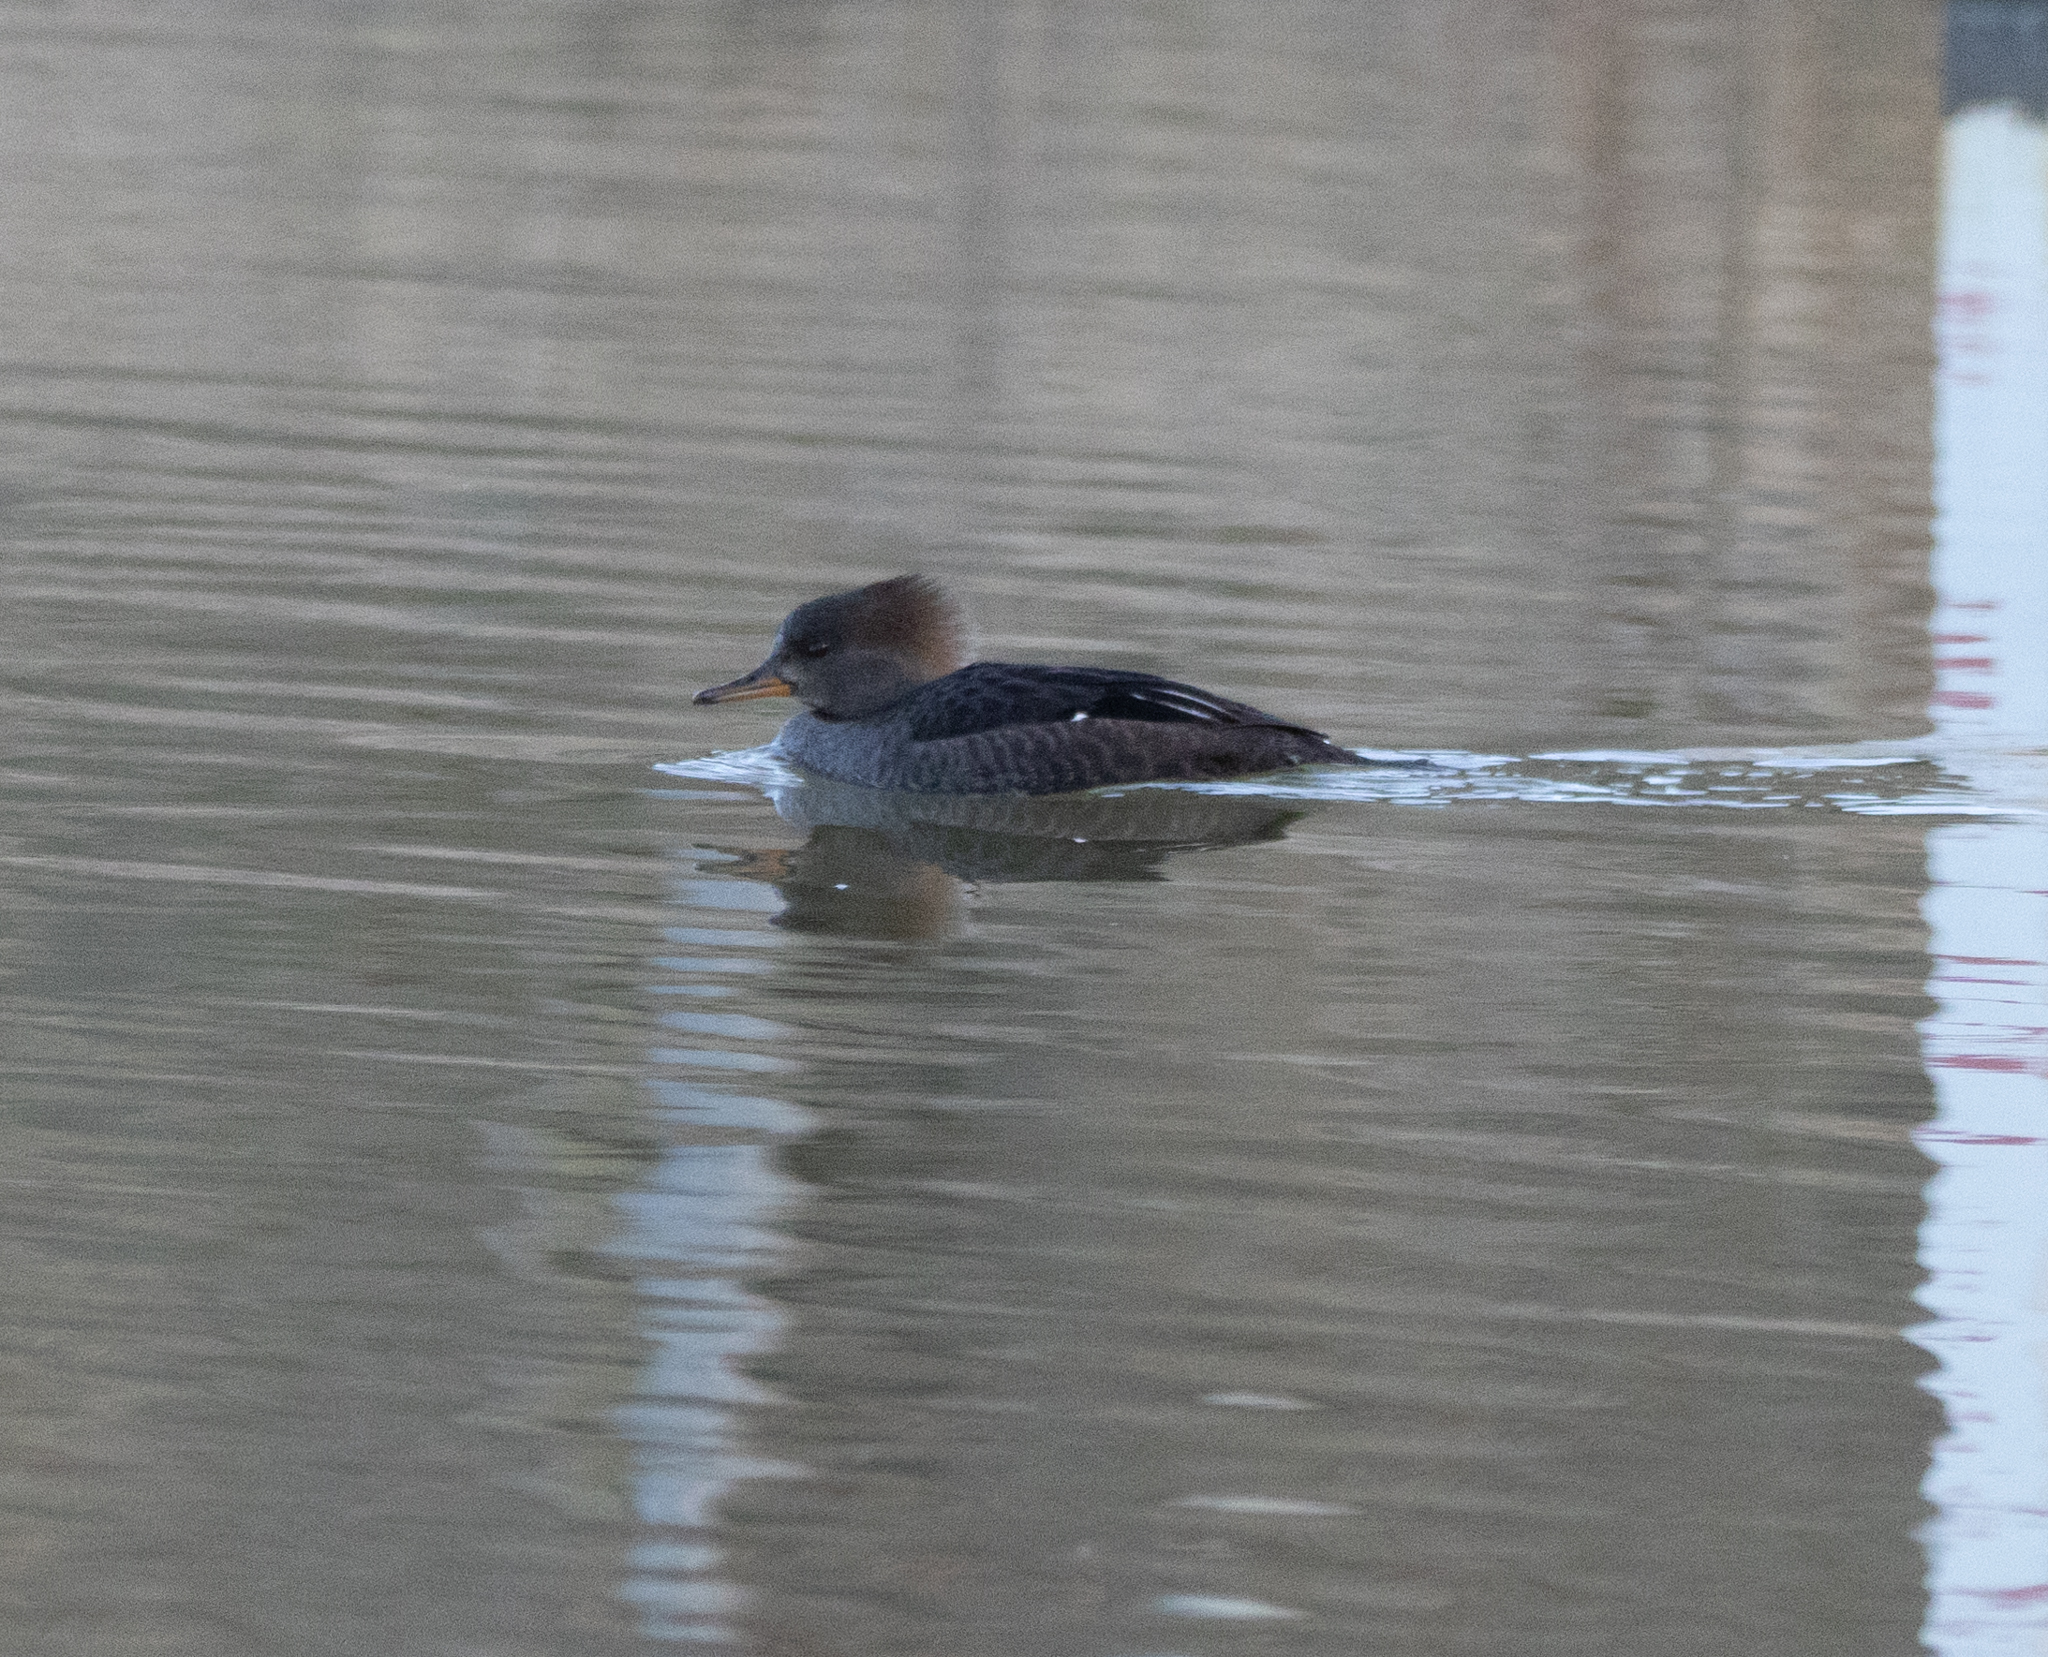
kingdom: Animalia
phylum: Chordata
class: Aves
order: Anseriformes
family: Anatidae
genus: Lophodytes
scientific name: Lophodytes cucullatus
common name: Hooded merganser
